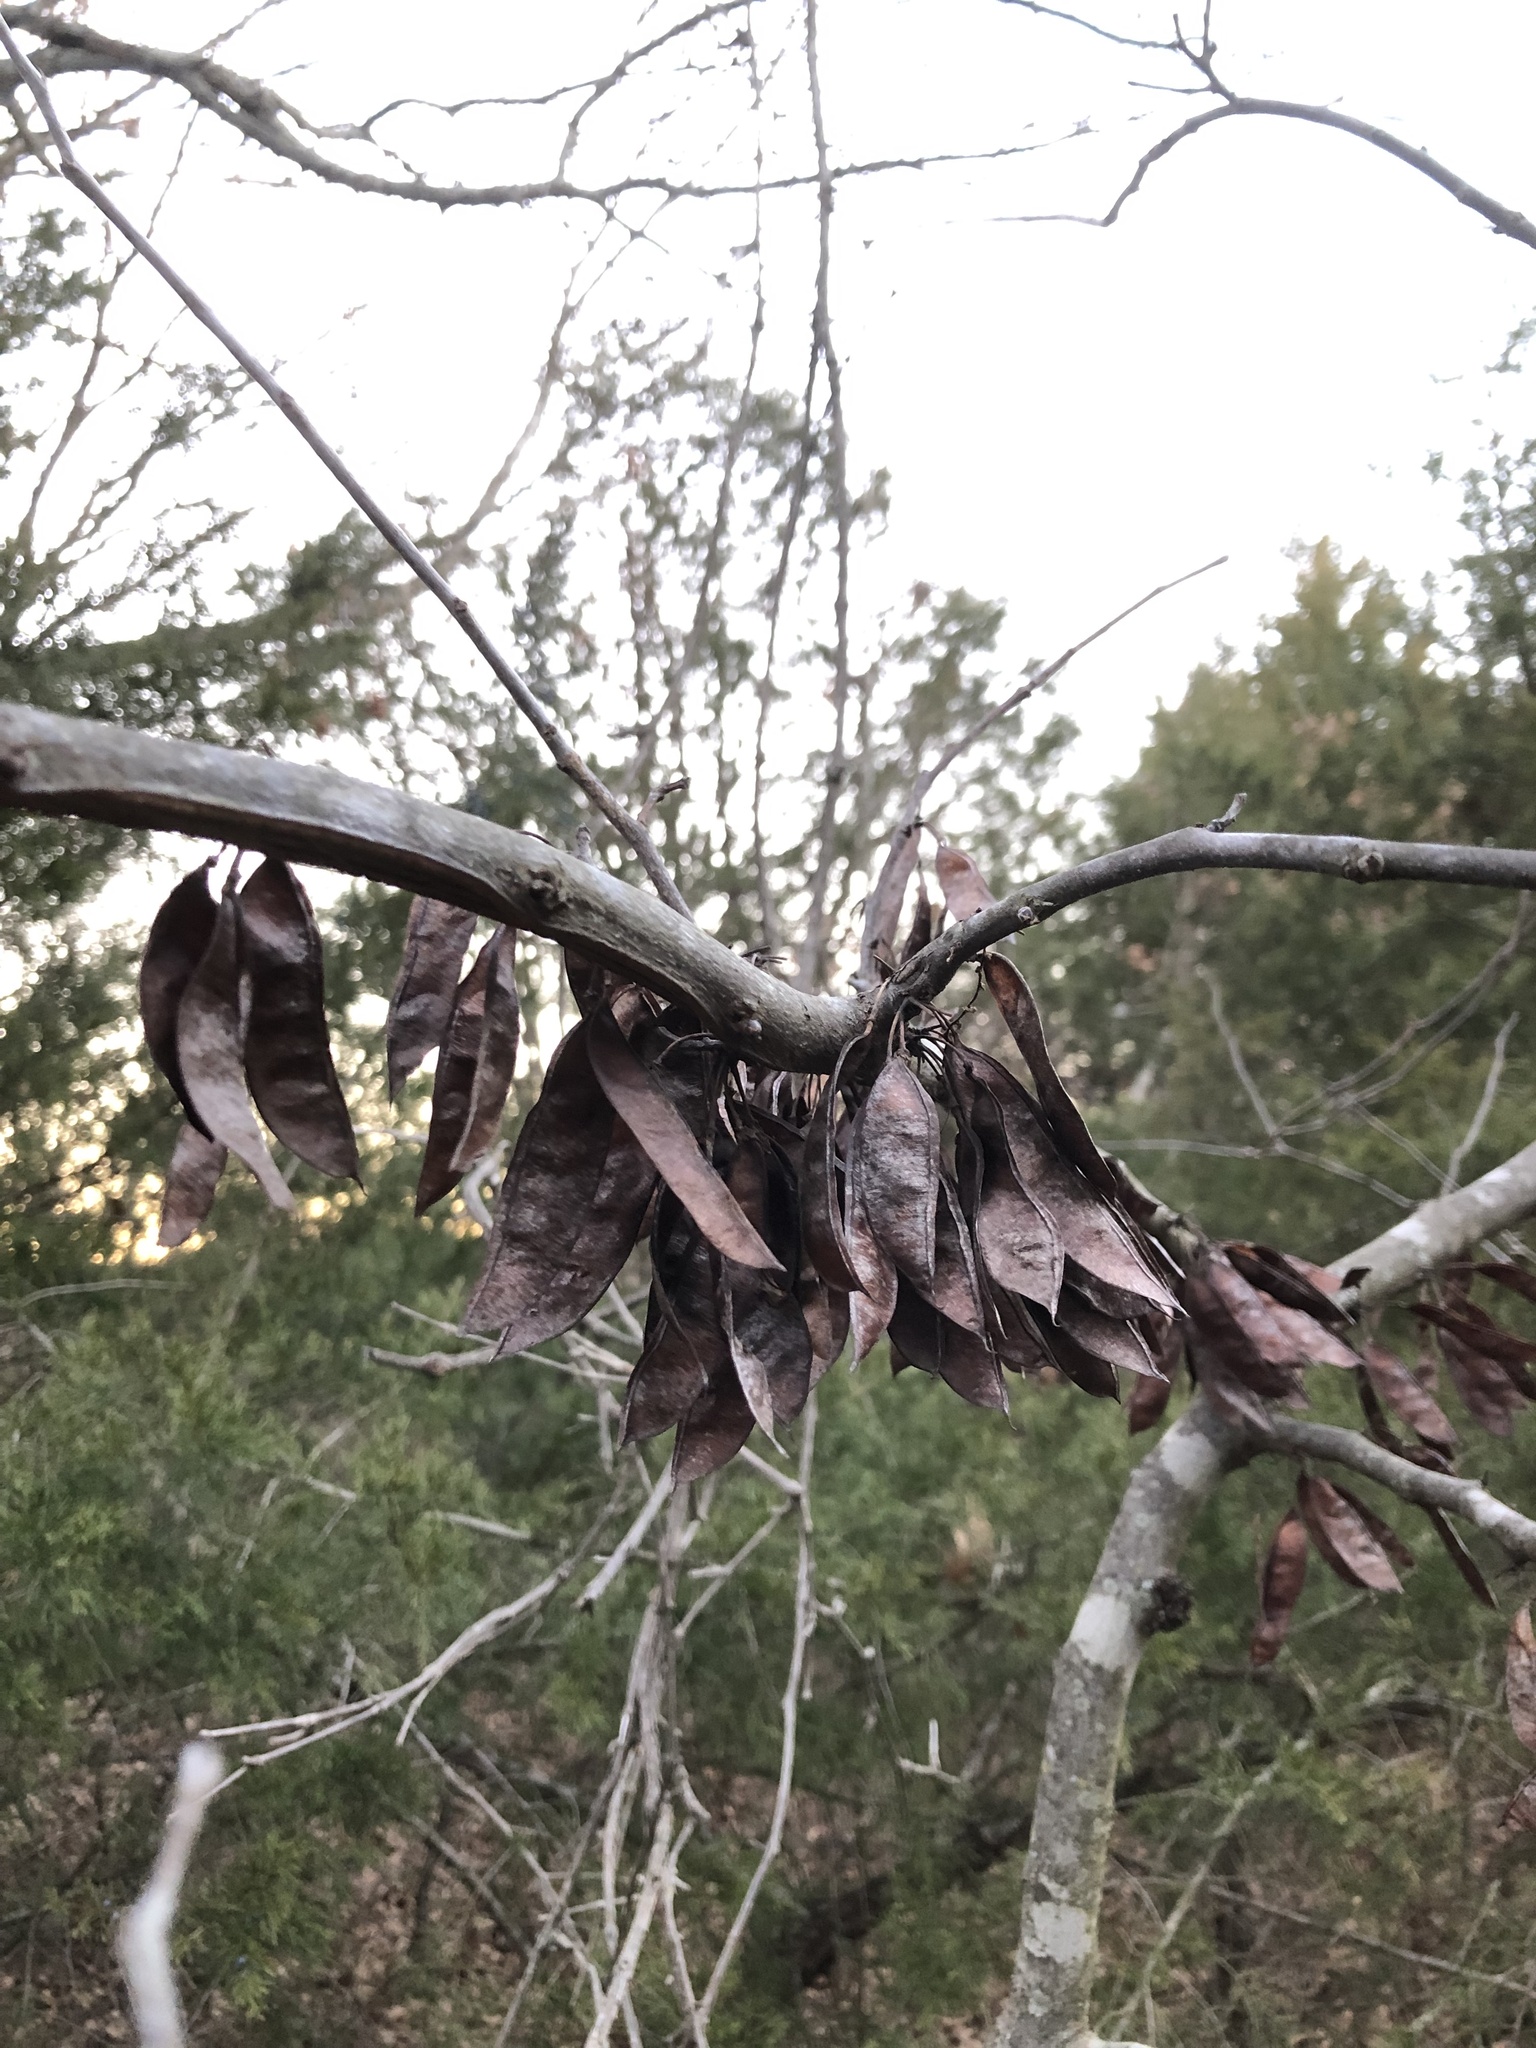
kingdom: Plantae
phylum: Tracheophyta
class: Magnoliopsida
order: Fabales
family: Fabaceae
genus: Cercis
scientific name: Cercis canadensis
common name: Eastern redbud
